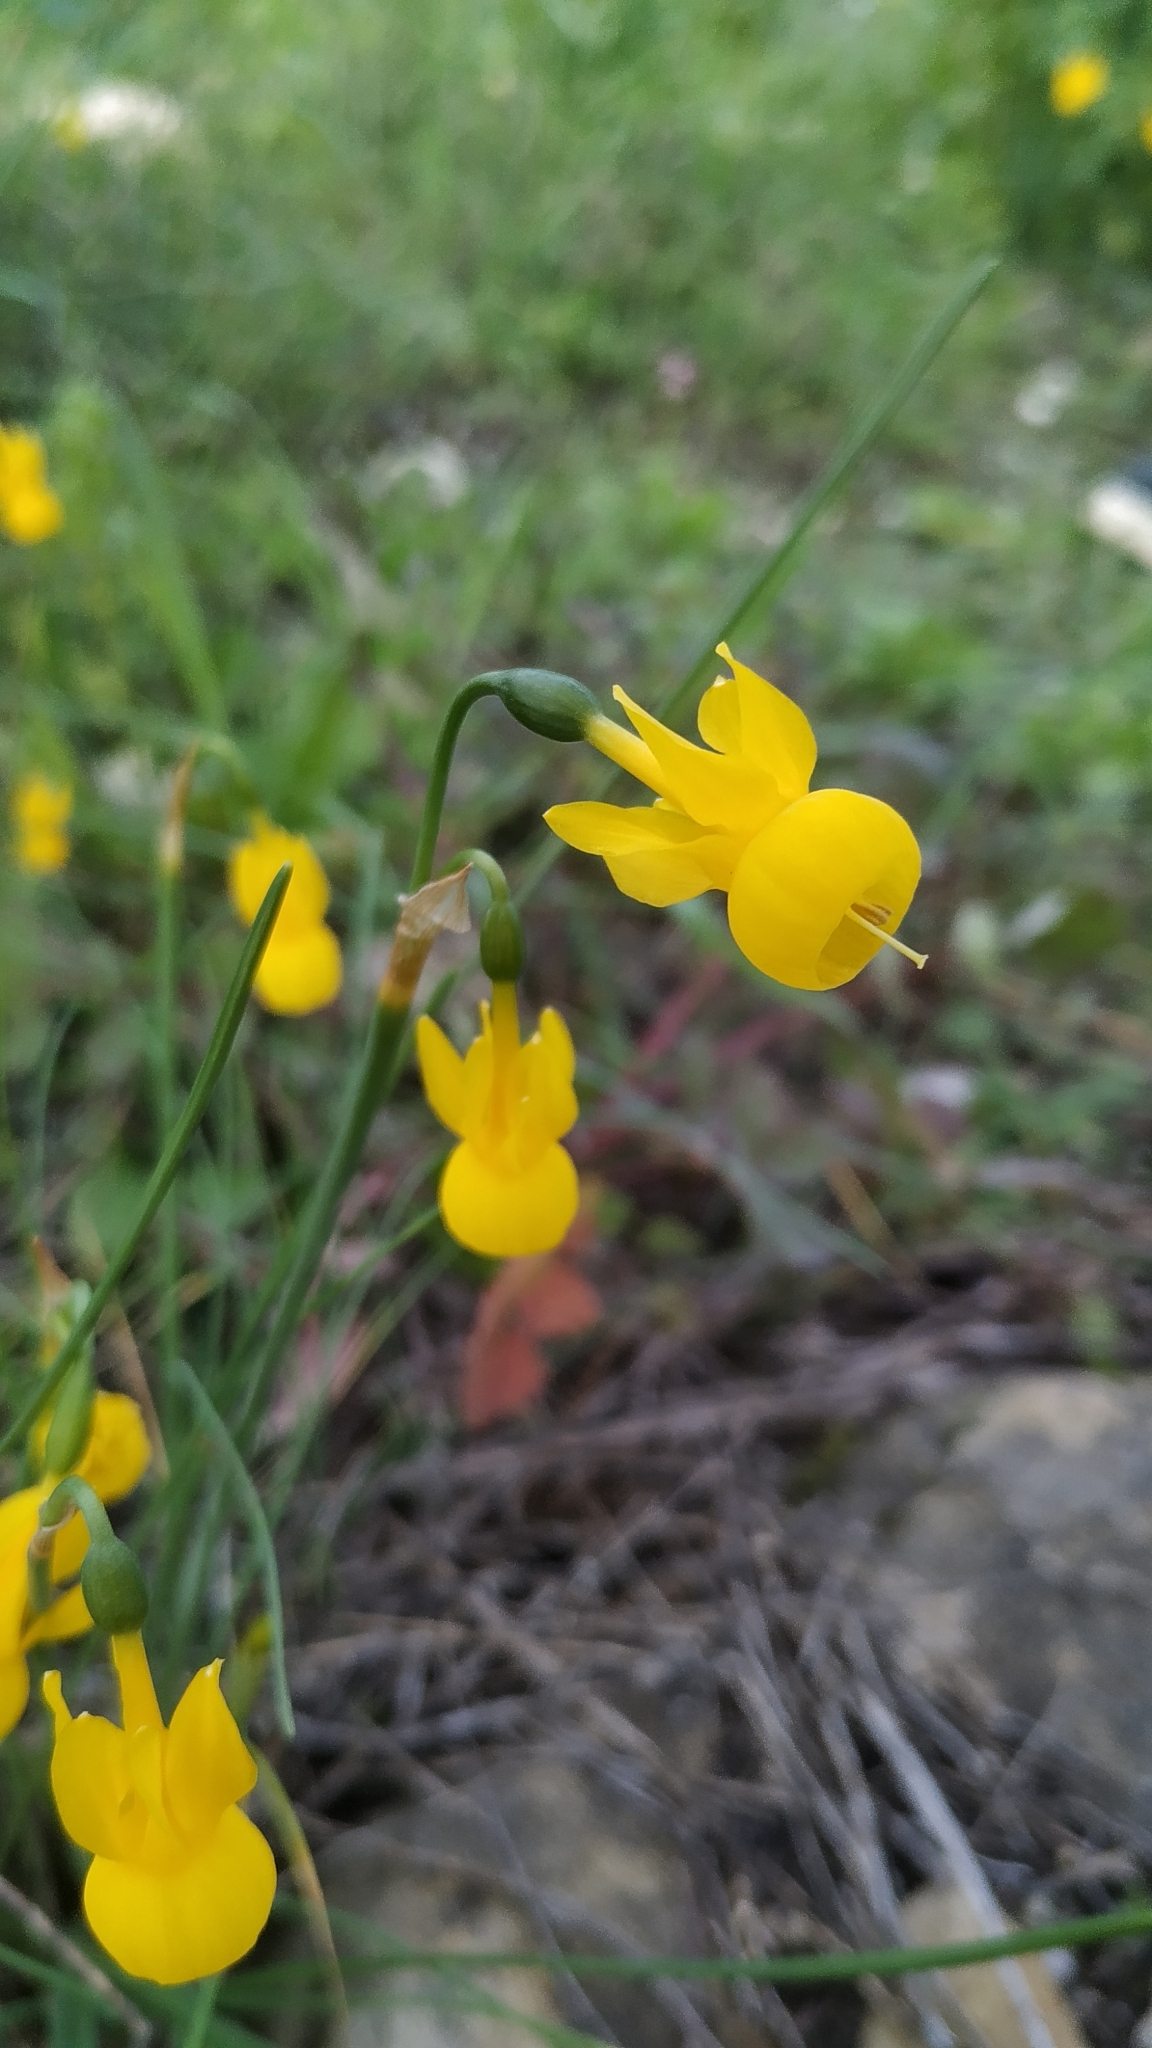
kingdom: Plantae
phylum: Tracheophyta
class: Liliopsida
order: Asparagales
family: Amaryllidaceae
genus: Narcissus
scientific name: Narcissus triandrus
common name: Angel's-tears
